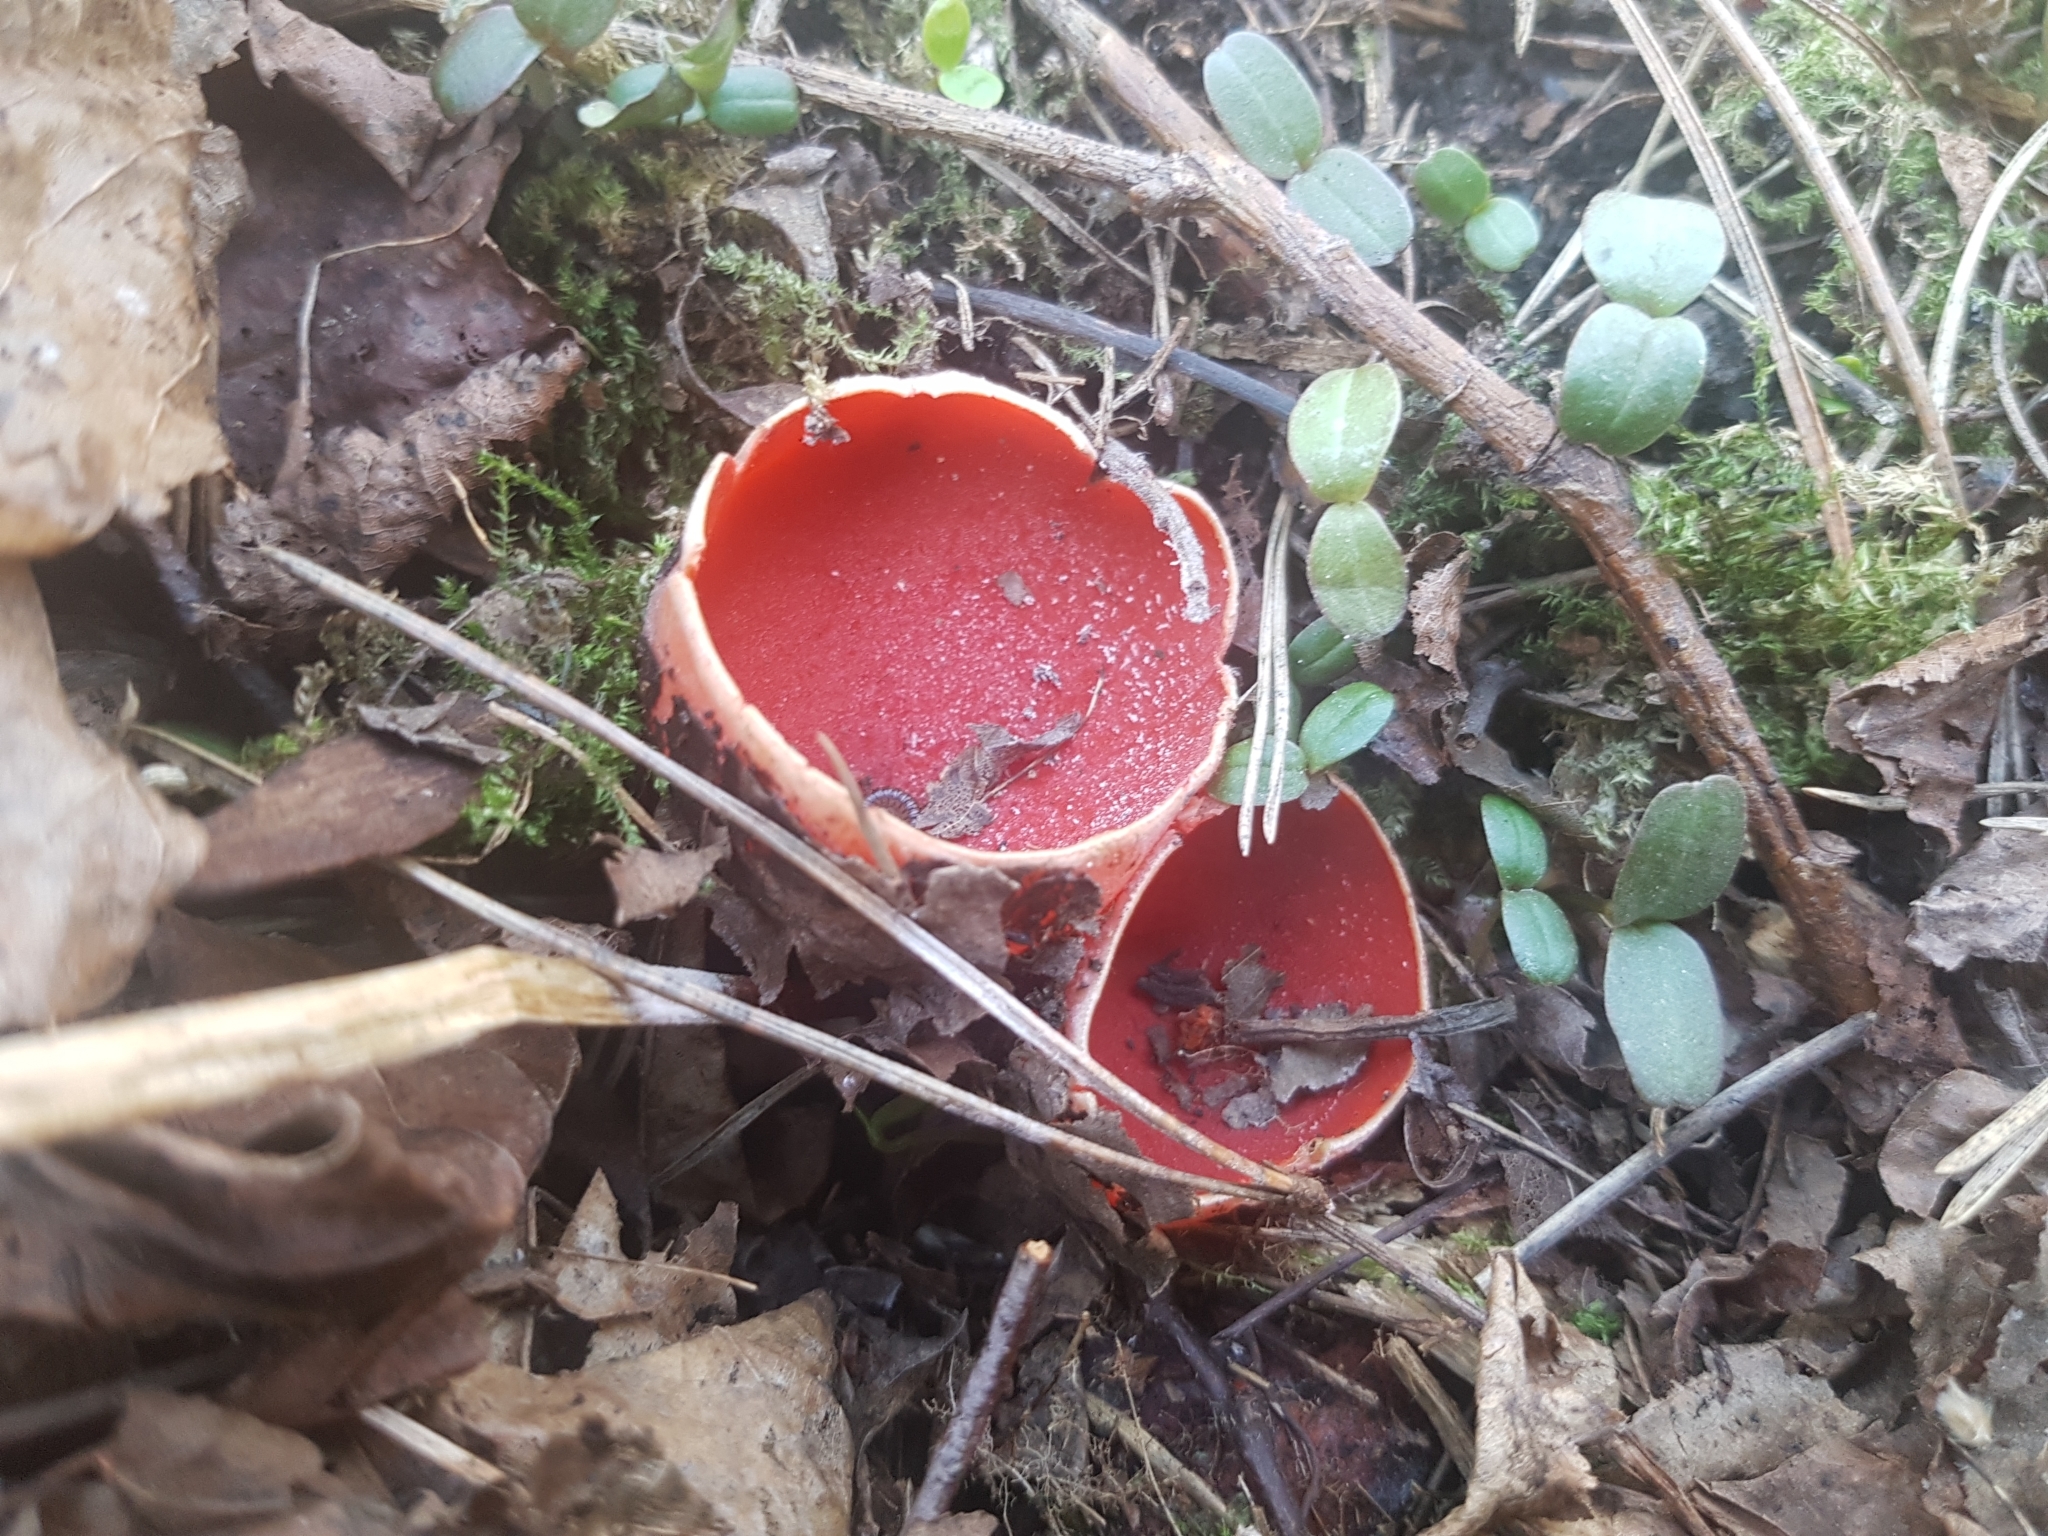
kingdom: Fungi
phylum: Ascomycota
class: Pezizomycetes
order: Pezizales
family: Sarcoscyphaceae
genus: Sarcoscypha
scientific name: Sarcoscypha
